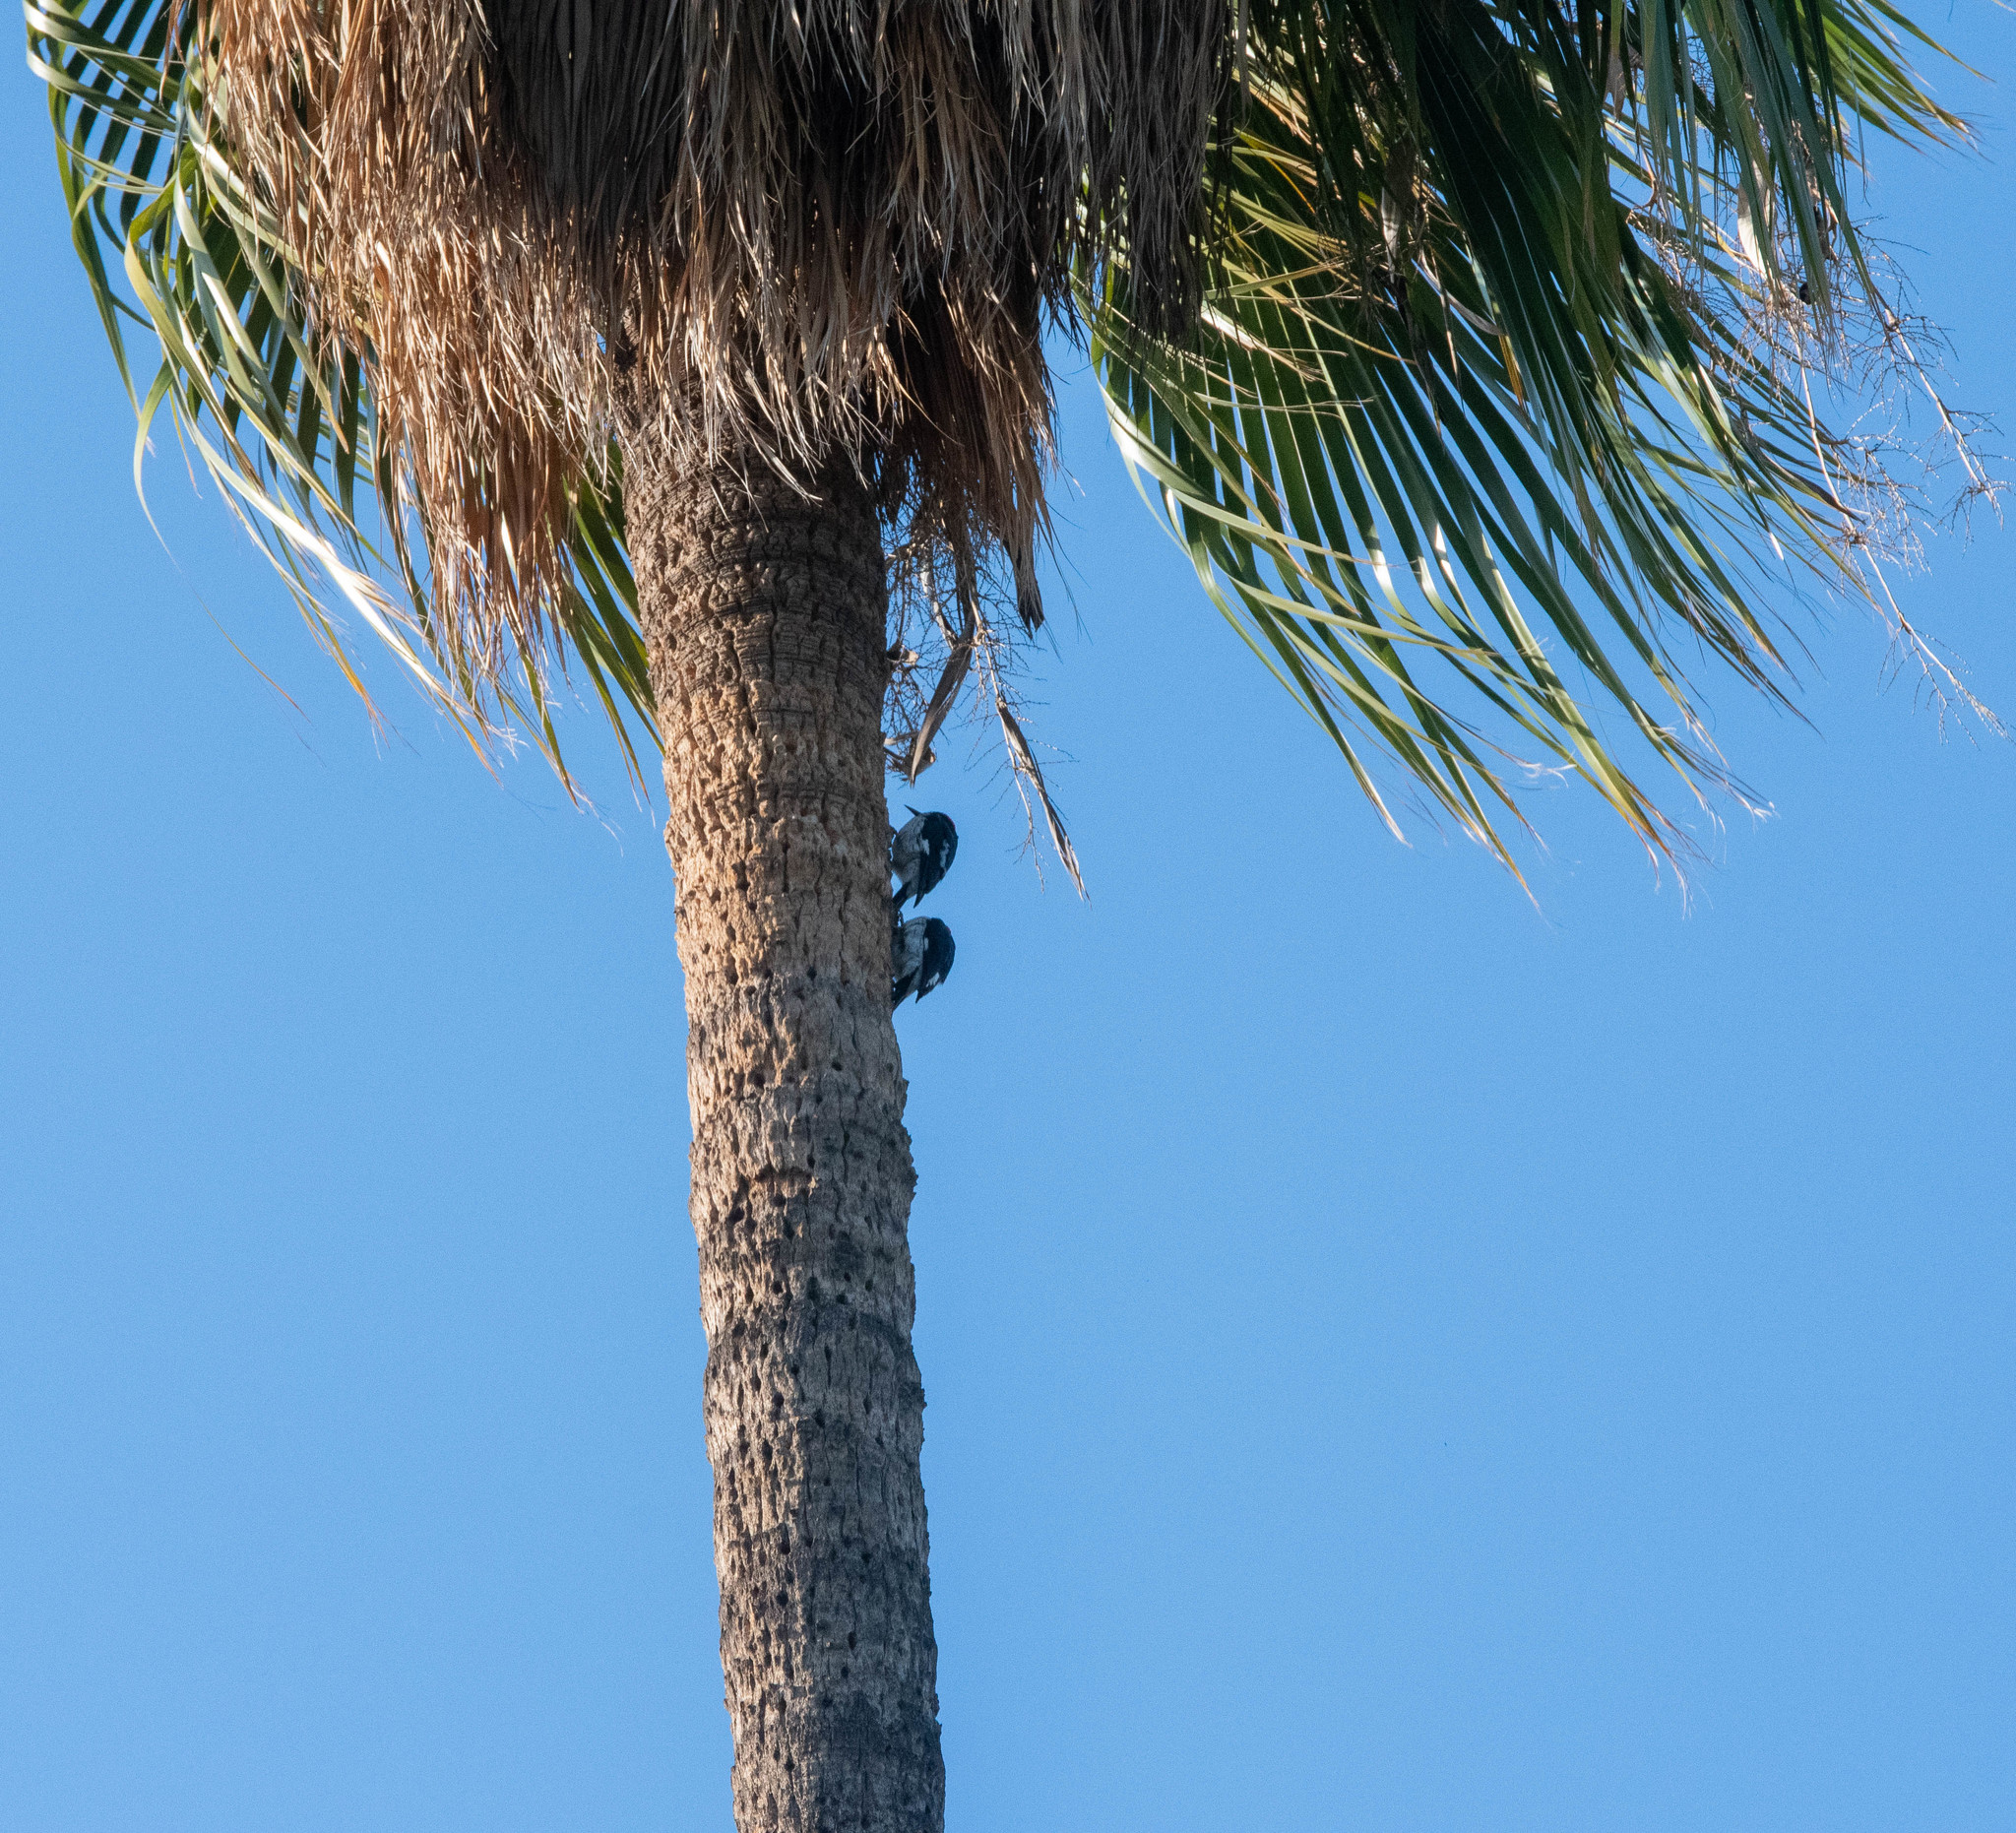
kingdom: Animalia
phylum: Chordata
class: Aves
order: Piciformes
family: Picidae
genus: Melanerpes
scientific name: Melanerpes formicivorus
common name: Acorn woodpecker
